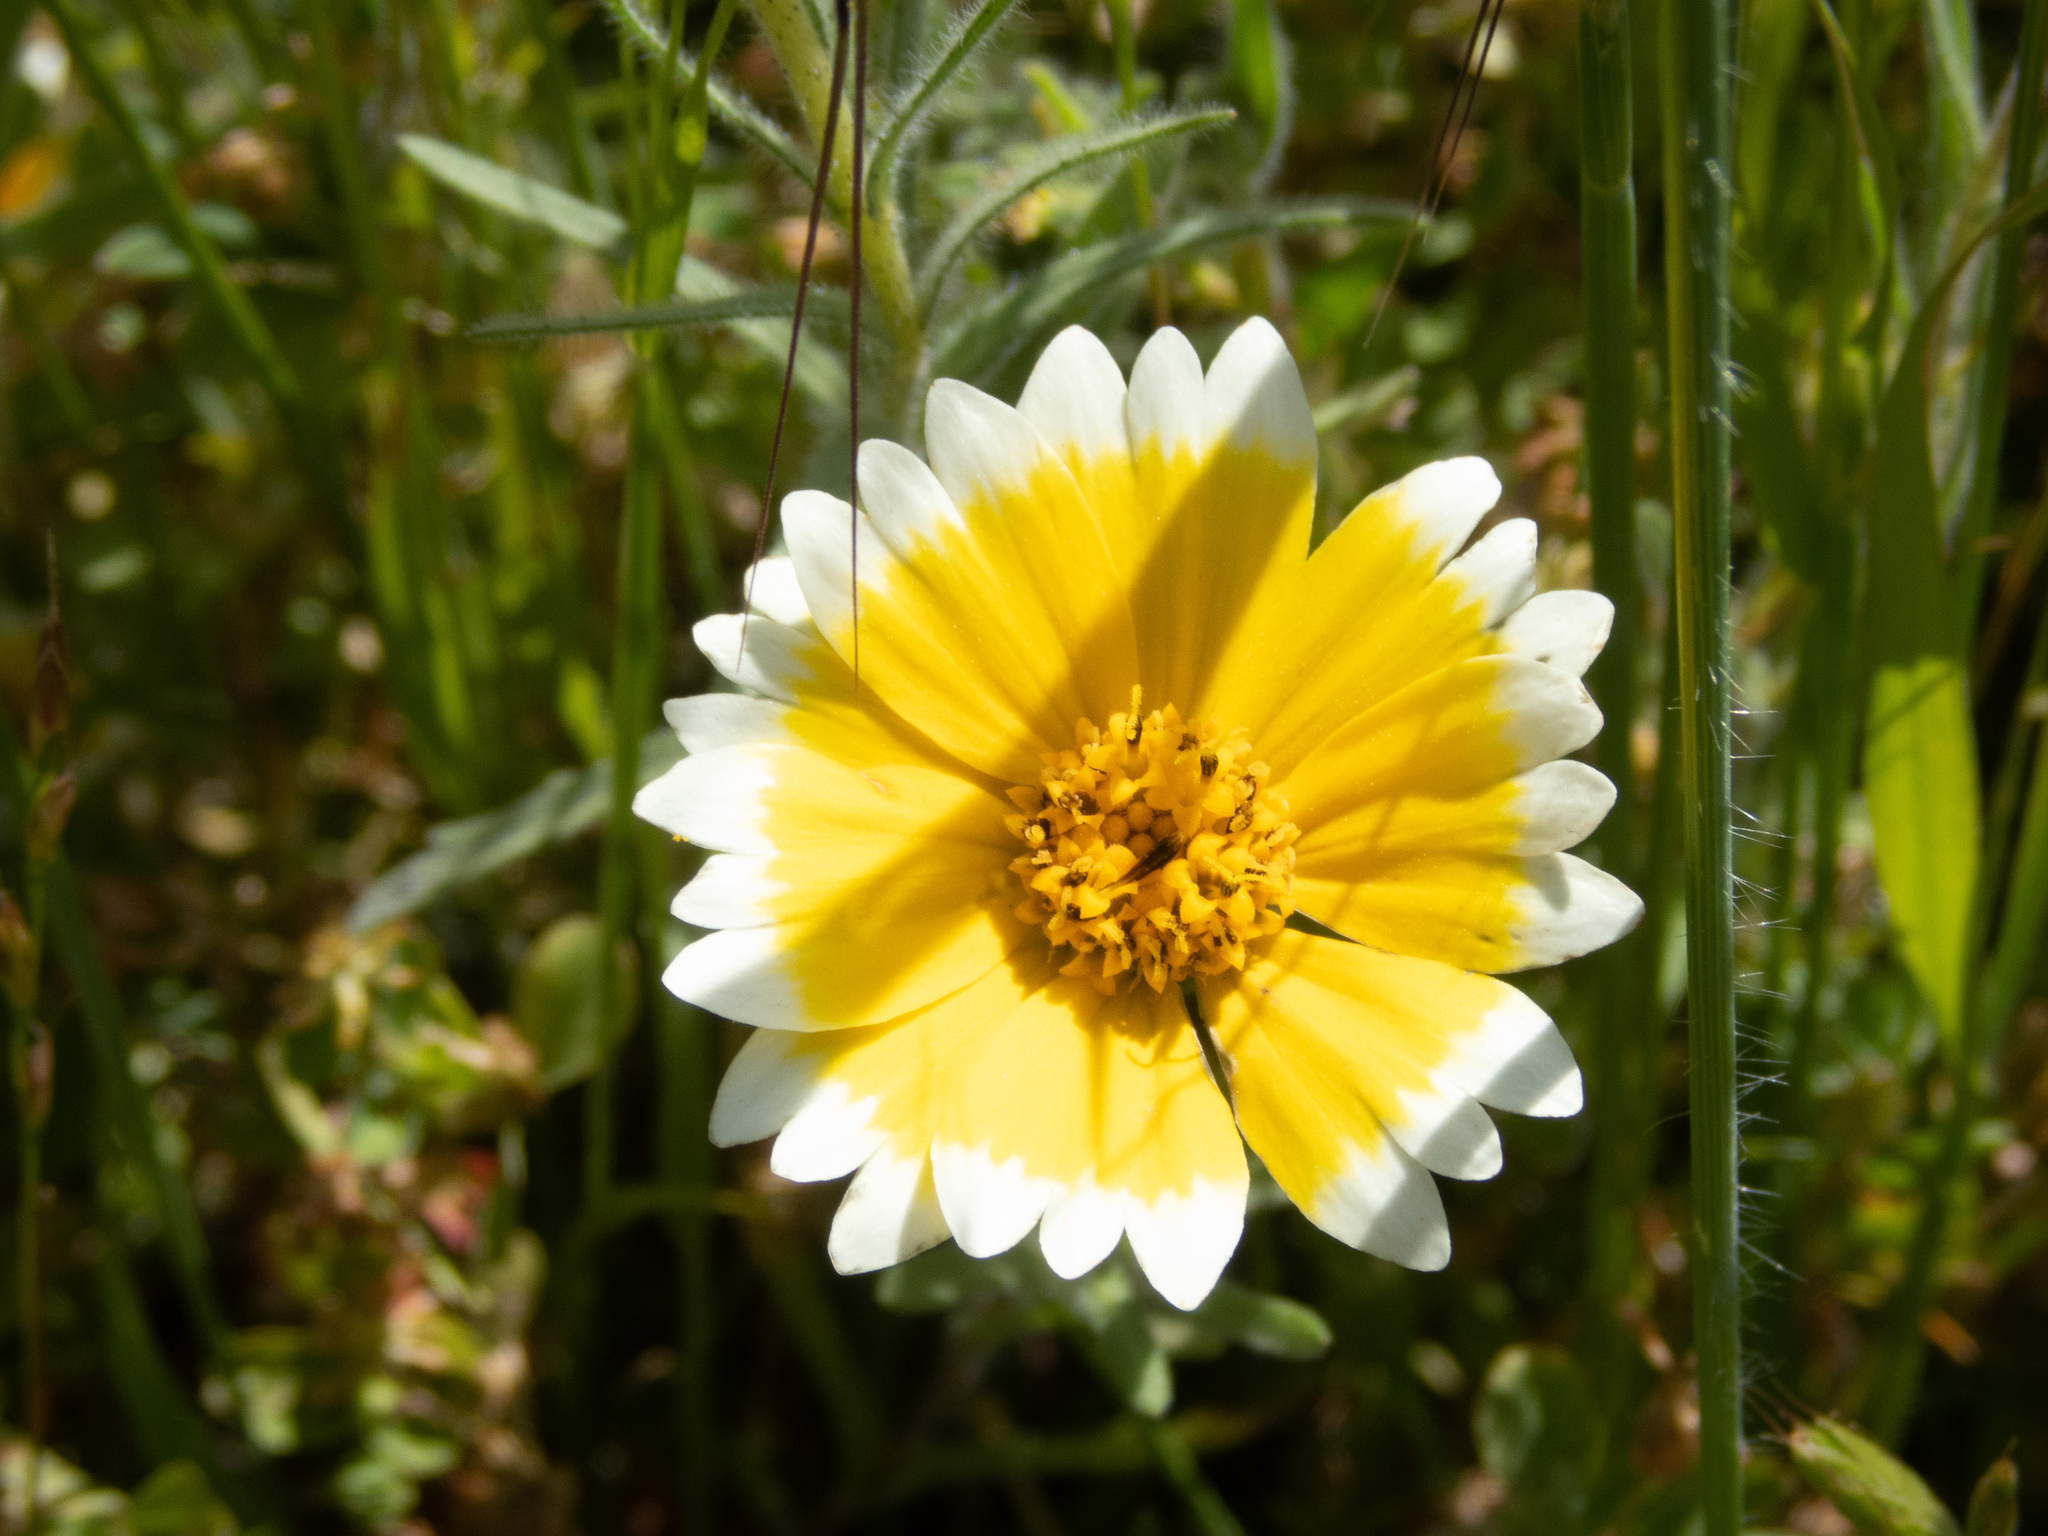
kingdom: Plantae
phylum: Tracheophyta
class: Magnoliopsida
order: Asterales
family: Asteraceae
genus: Layia
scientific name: Layia platyglossa
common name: Tidy-tips
